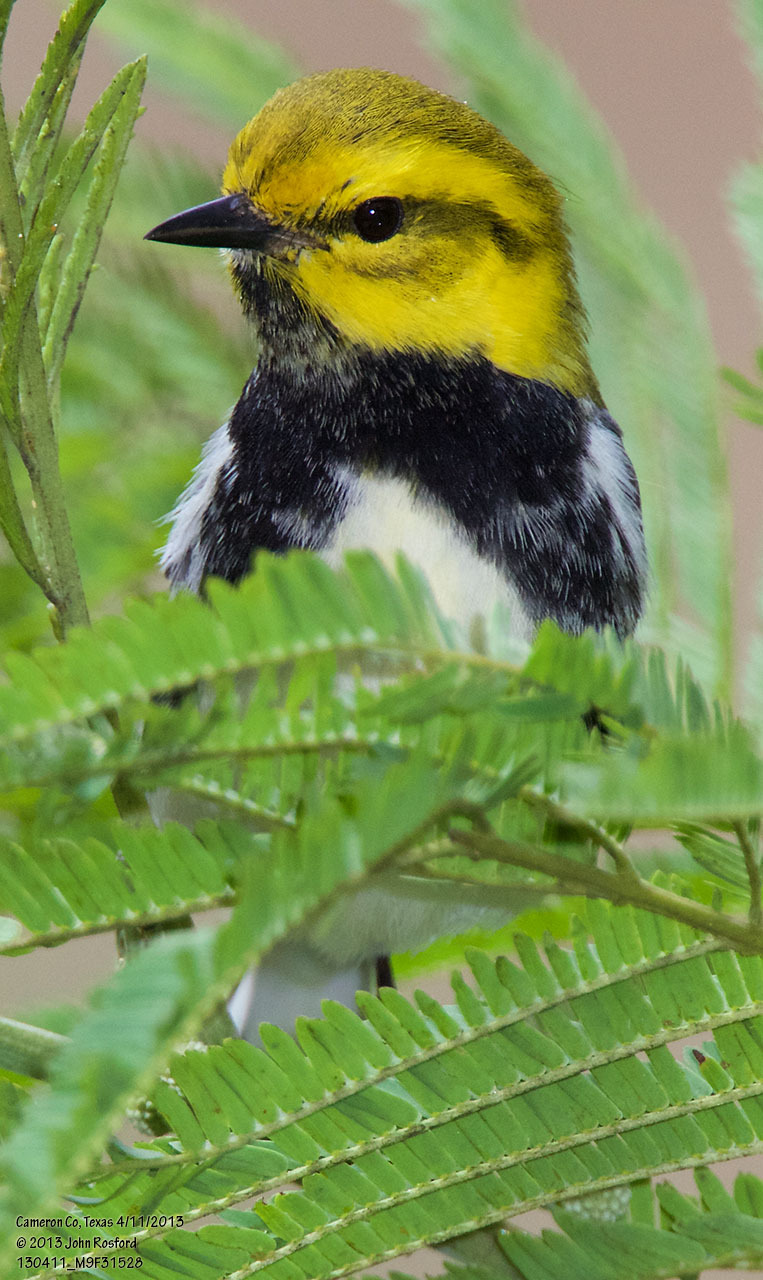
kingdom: Animalia
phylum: Chordata
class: Aves
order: Passeriformes
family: Parulidae
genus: Setophaga
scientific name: Setophaga virens
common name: Black-throated green warbler
